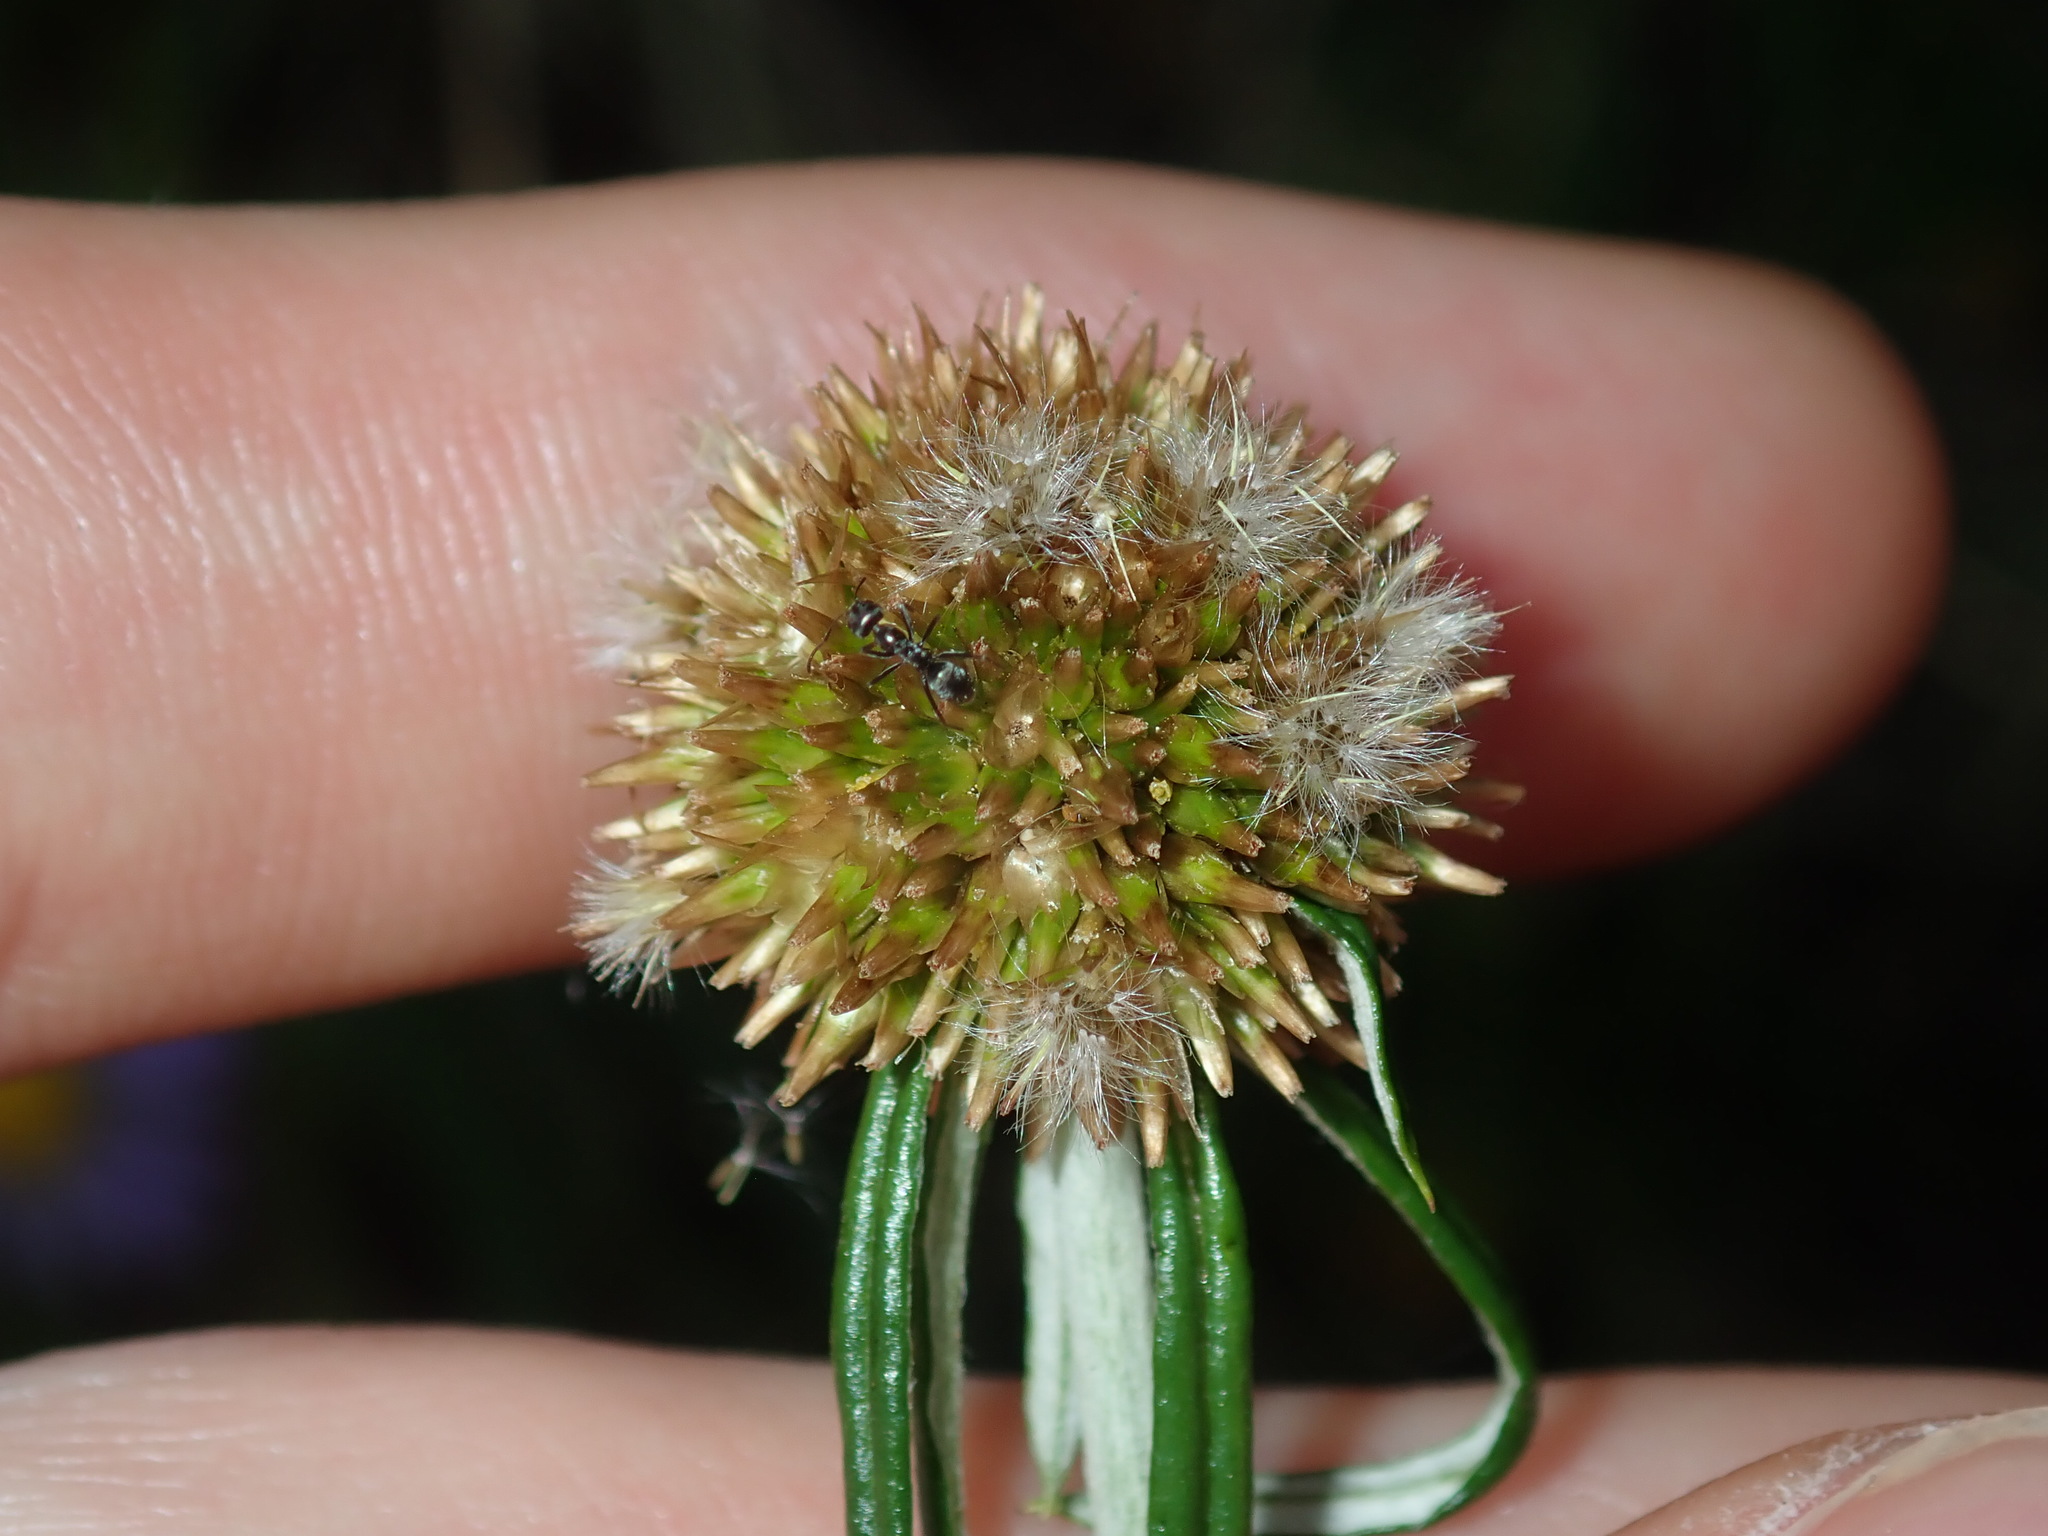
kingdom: Plantae
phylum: Tracheophyta
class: Magnoliopsida
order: Asterales
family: Asteraceae
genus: Euchiton
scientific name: Euchiton sphaericus
